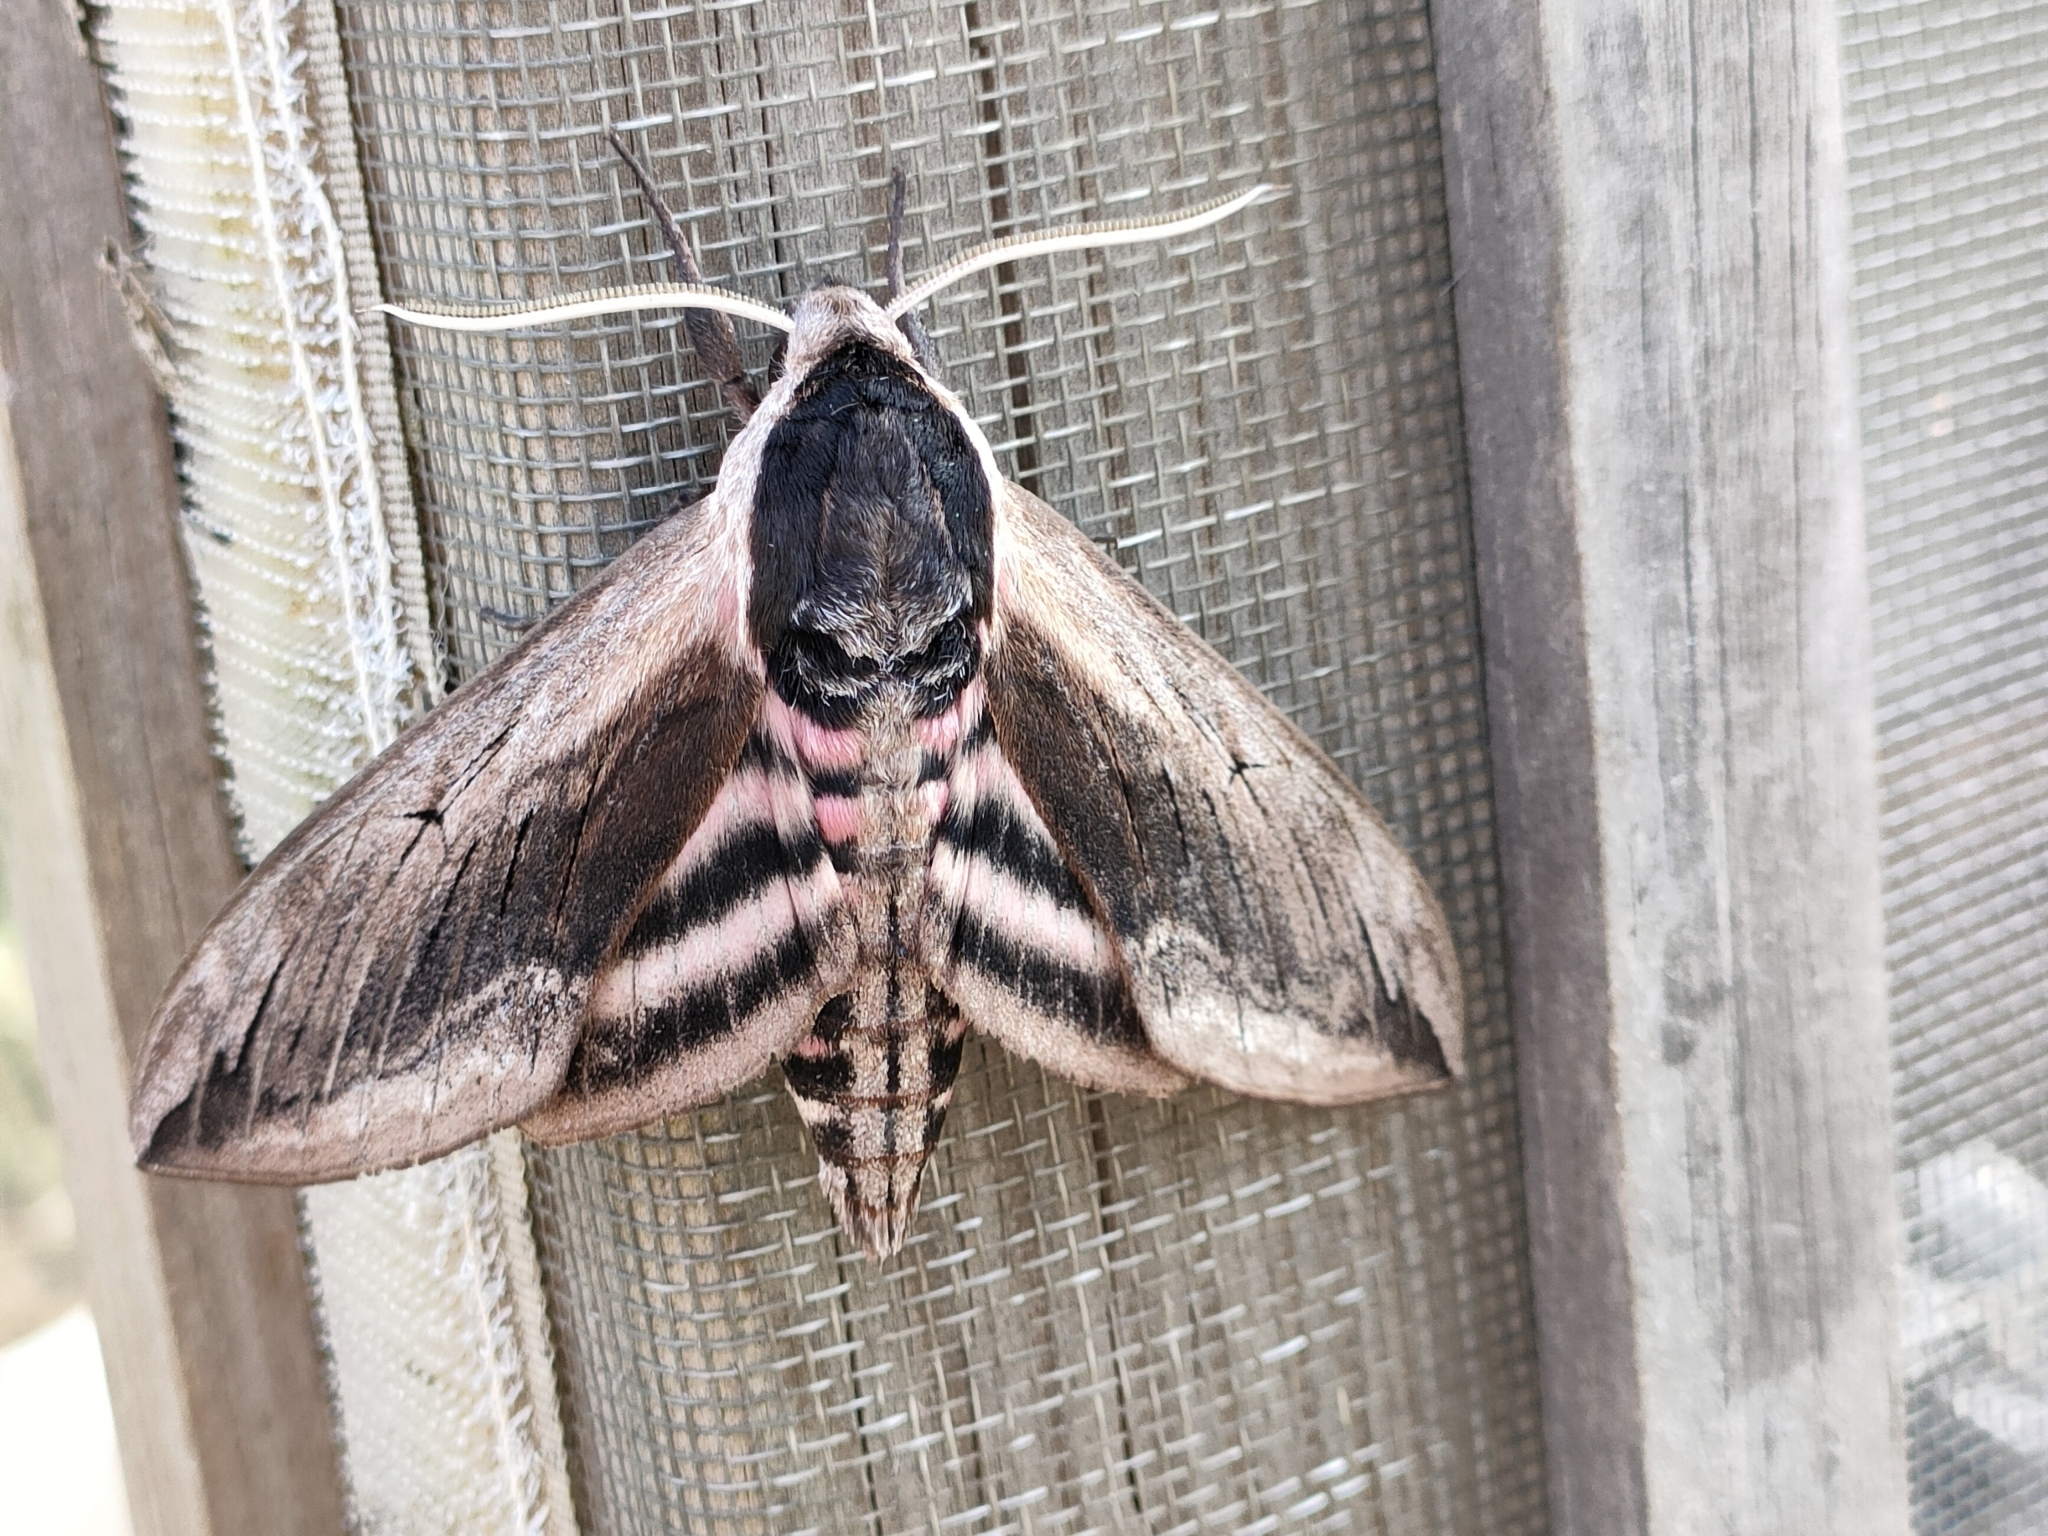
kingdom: Animalia
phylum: Arthropoda
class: Insecta
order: Lepidoptera
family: Sphingidae
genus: Sphinx
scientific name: Sphinx ligustri
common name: Privet hawk-moth
